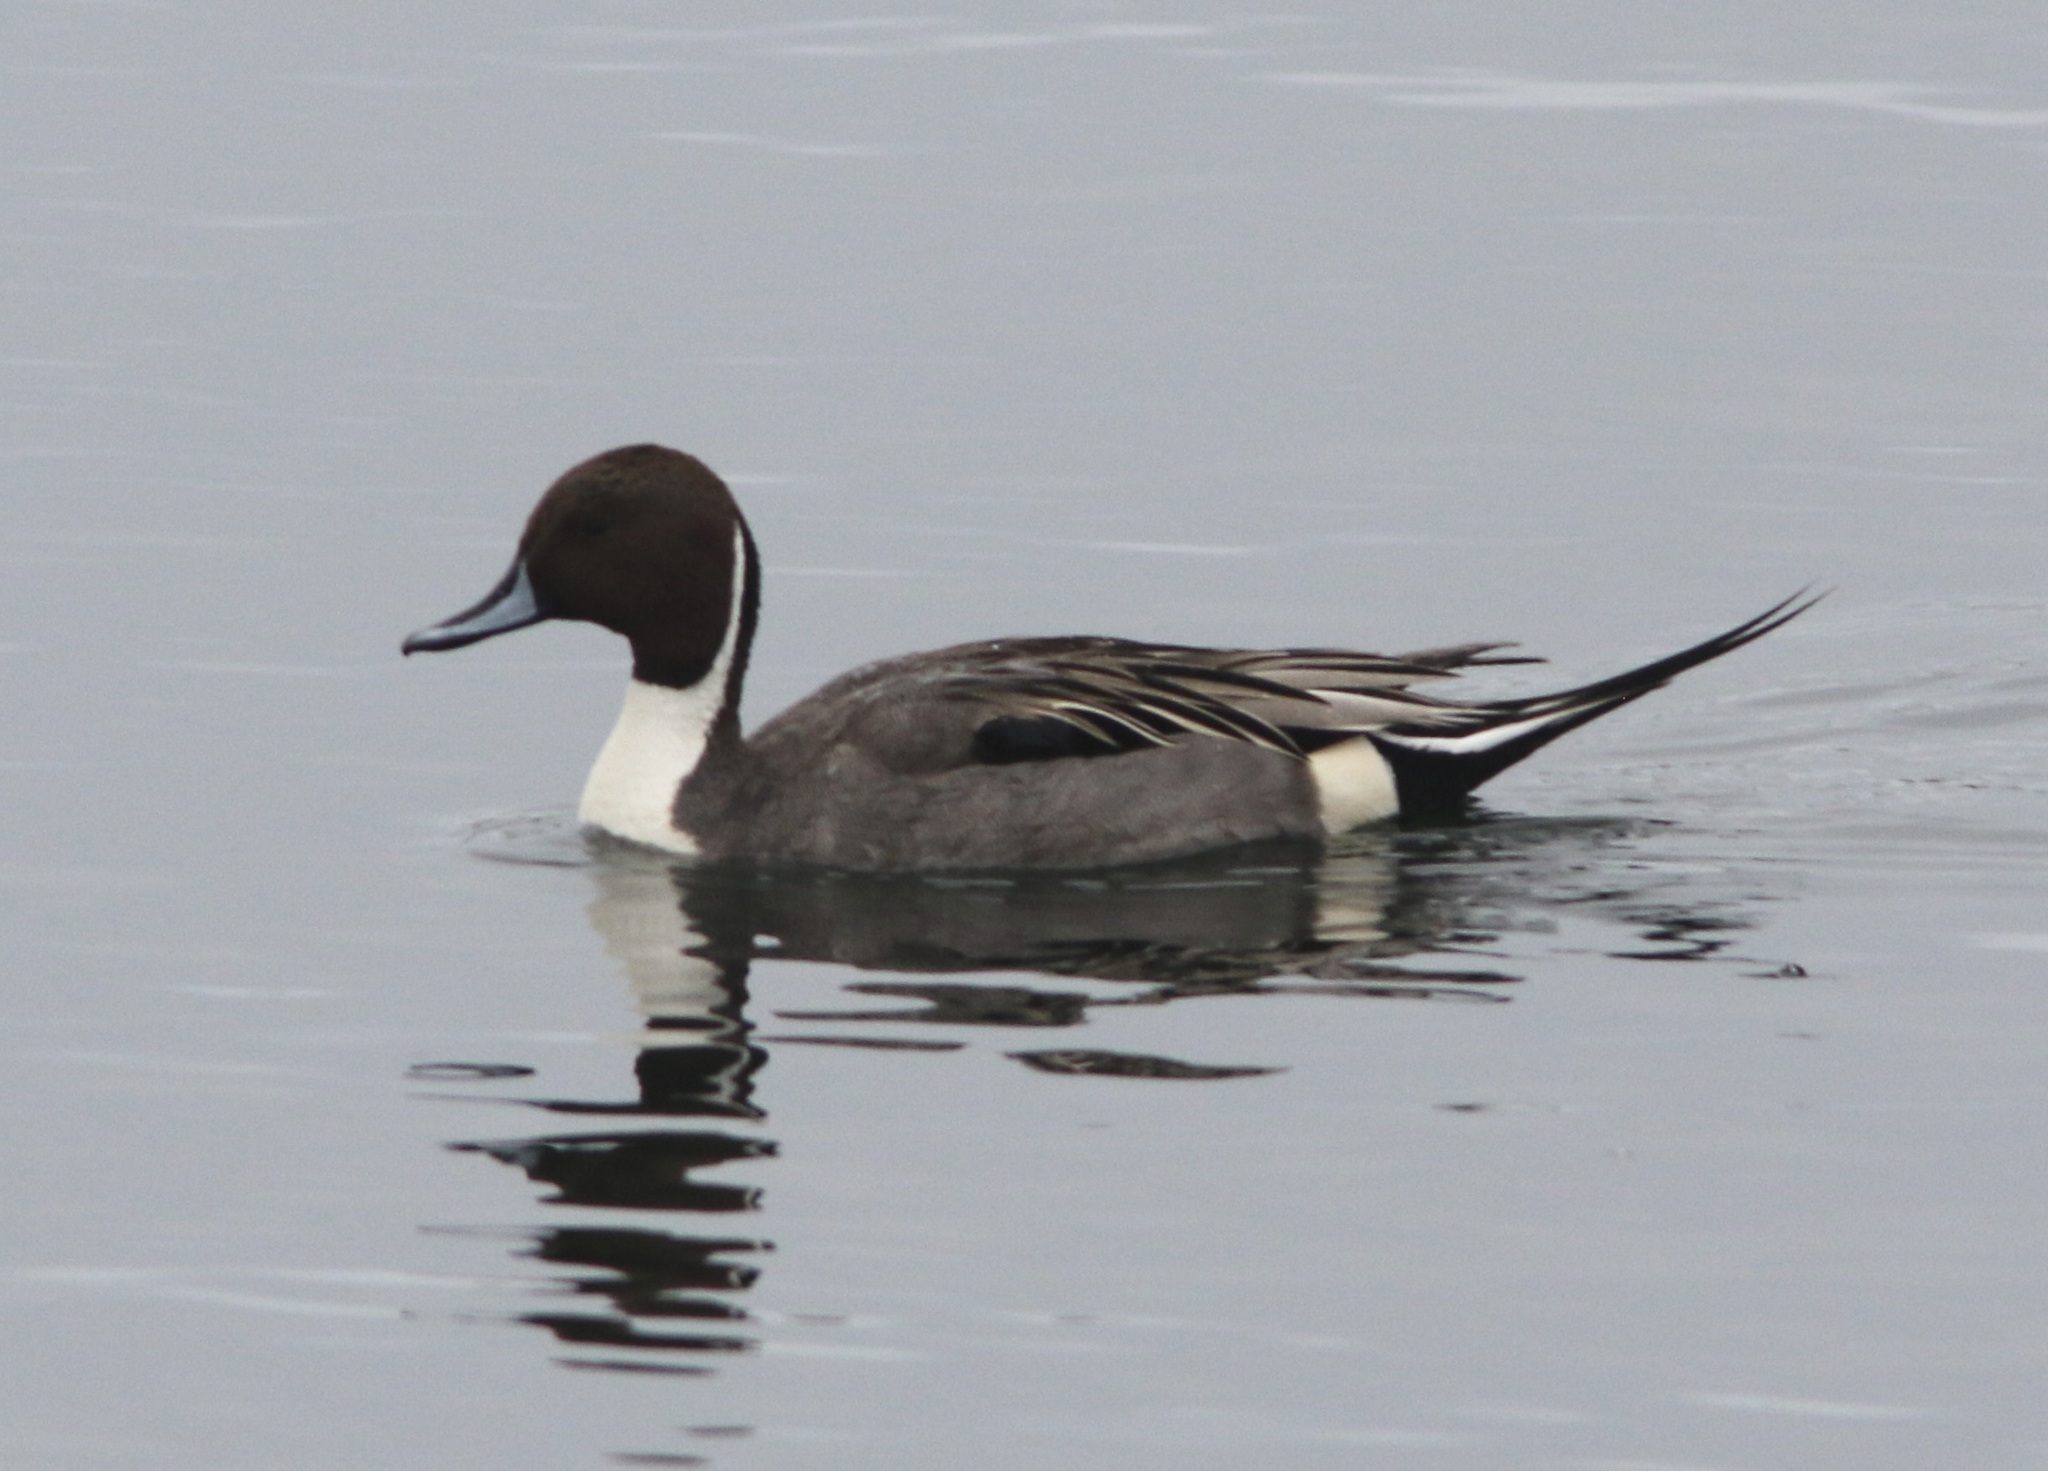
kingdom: Animalia
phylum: Chordata
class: Aves
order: Anseriformes
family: Anatidae
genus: Anas
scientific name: Anas acuta
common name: Northern pintail
